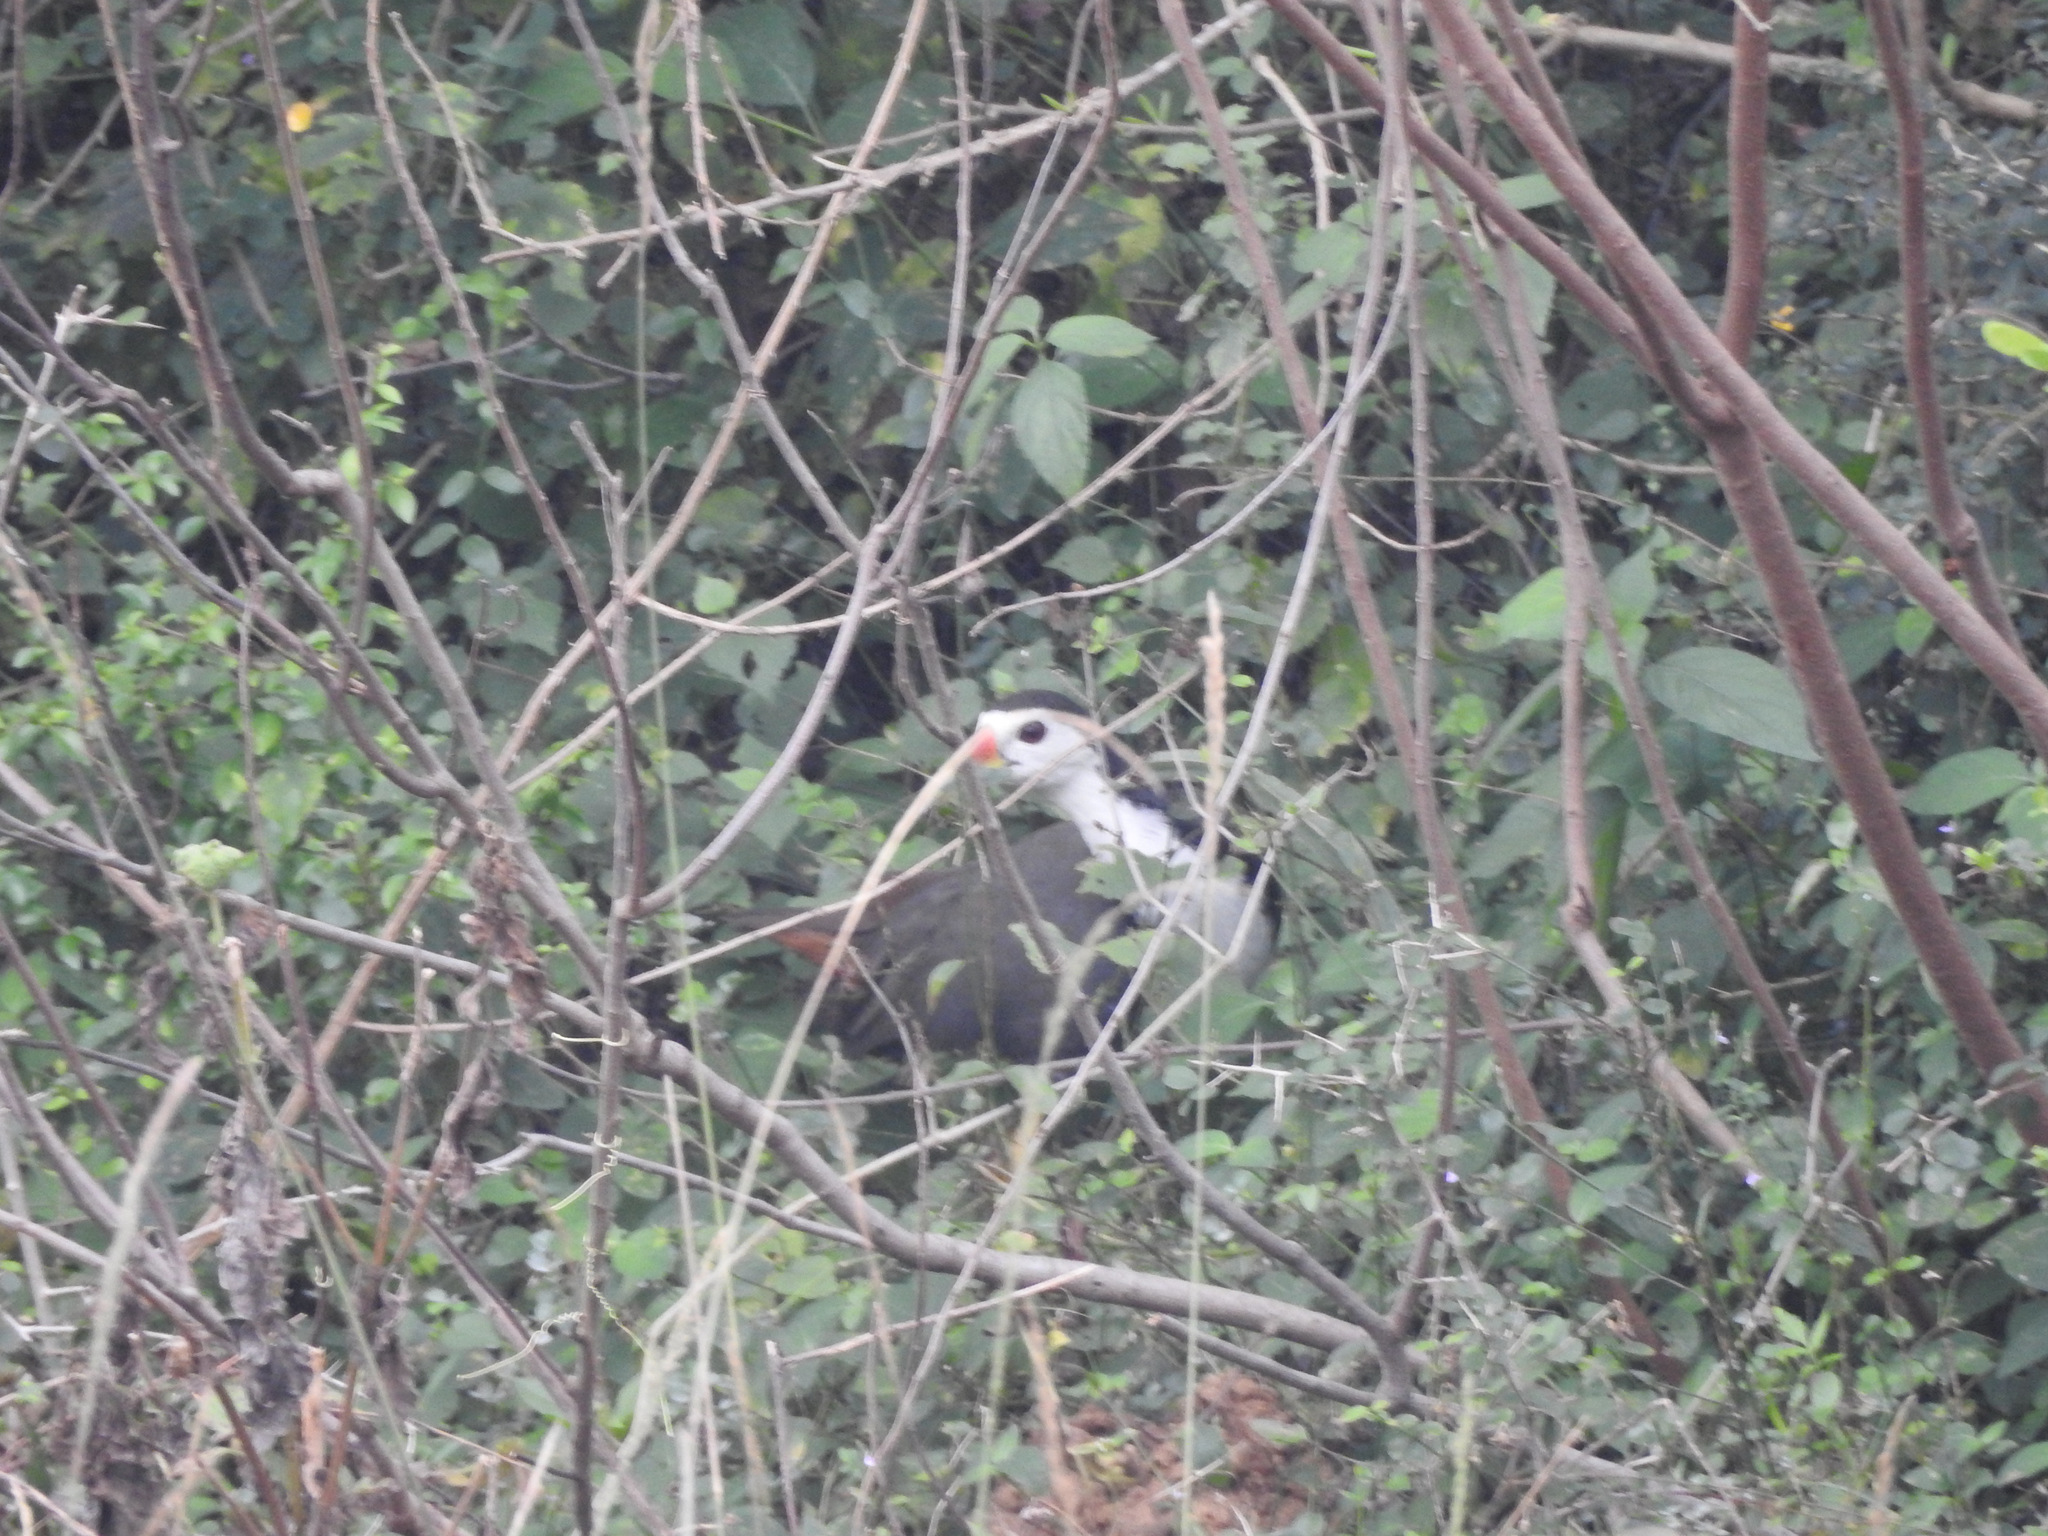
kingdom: Animalia
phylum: Chordata
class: Aves
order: Gruiformes
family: Rallidae
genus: Amaurornis
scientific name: Amaurornis phoenicurus
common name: White-breasted waterhen
